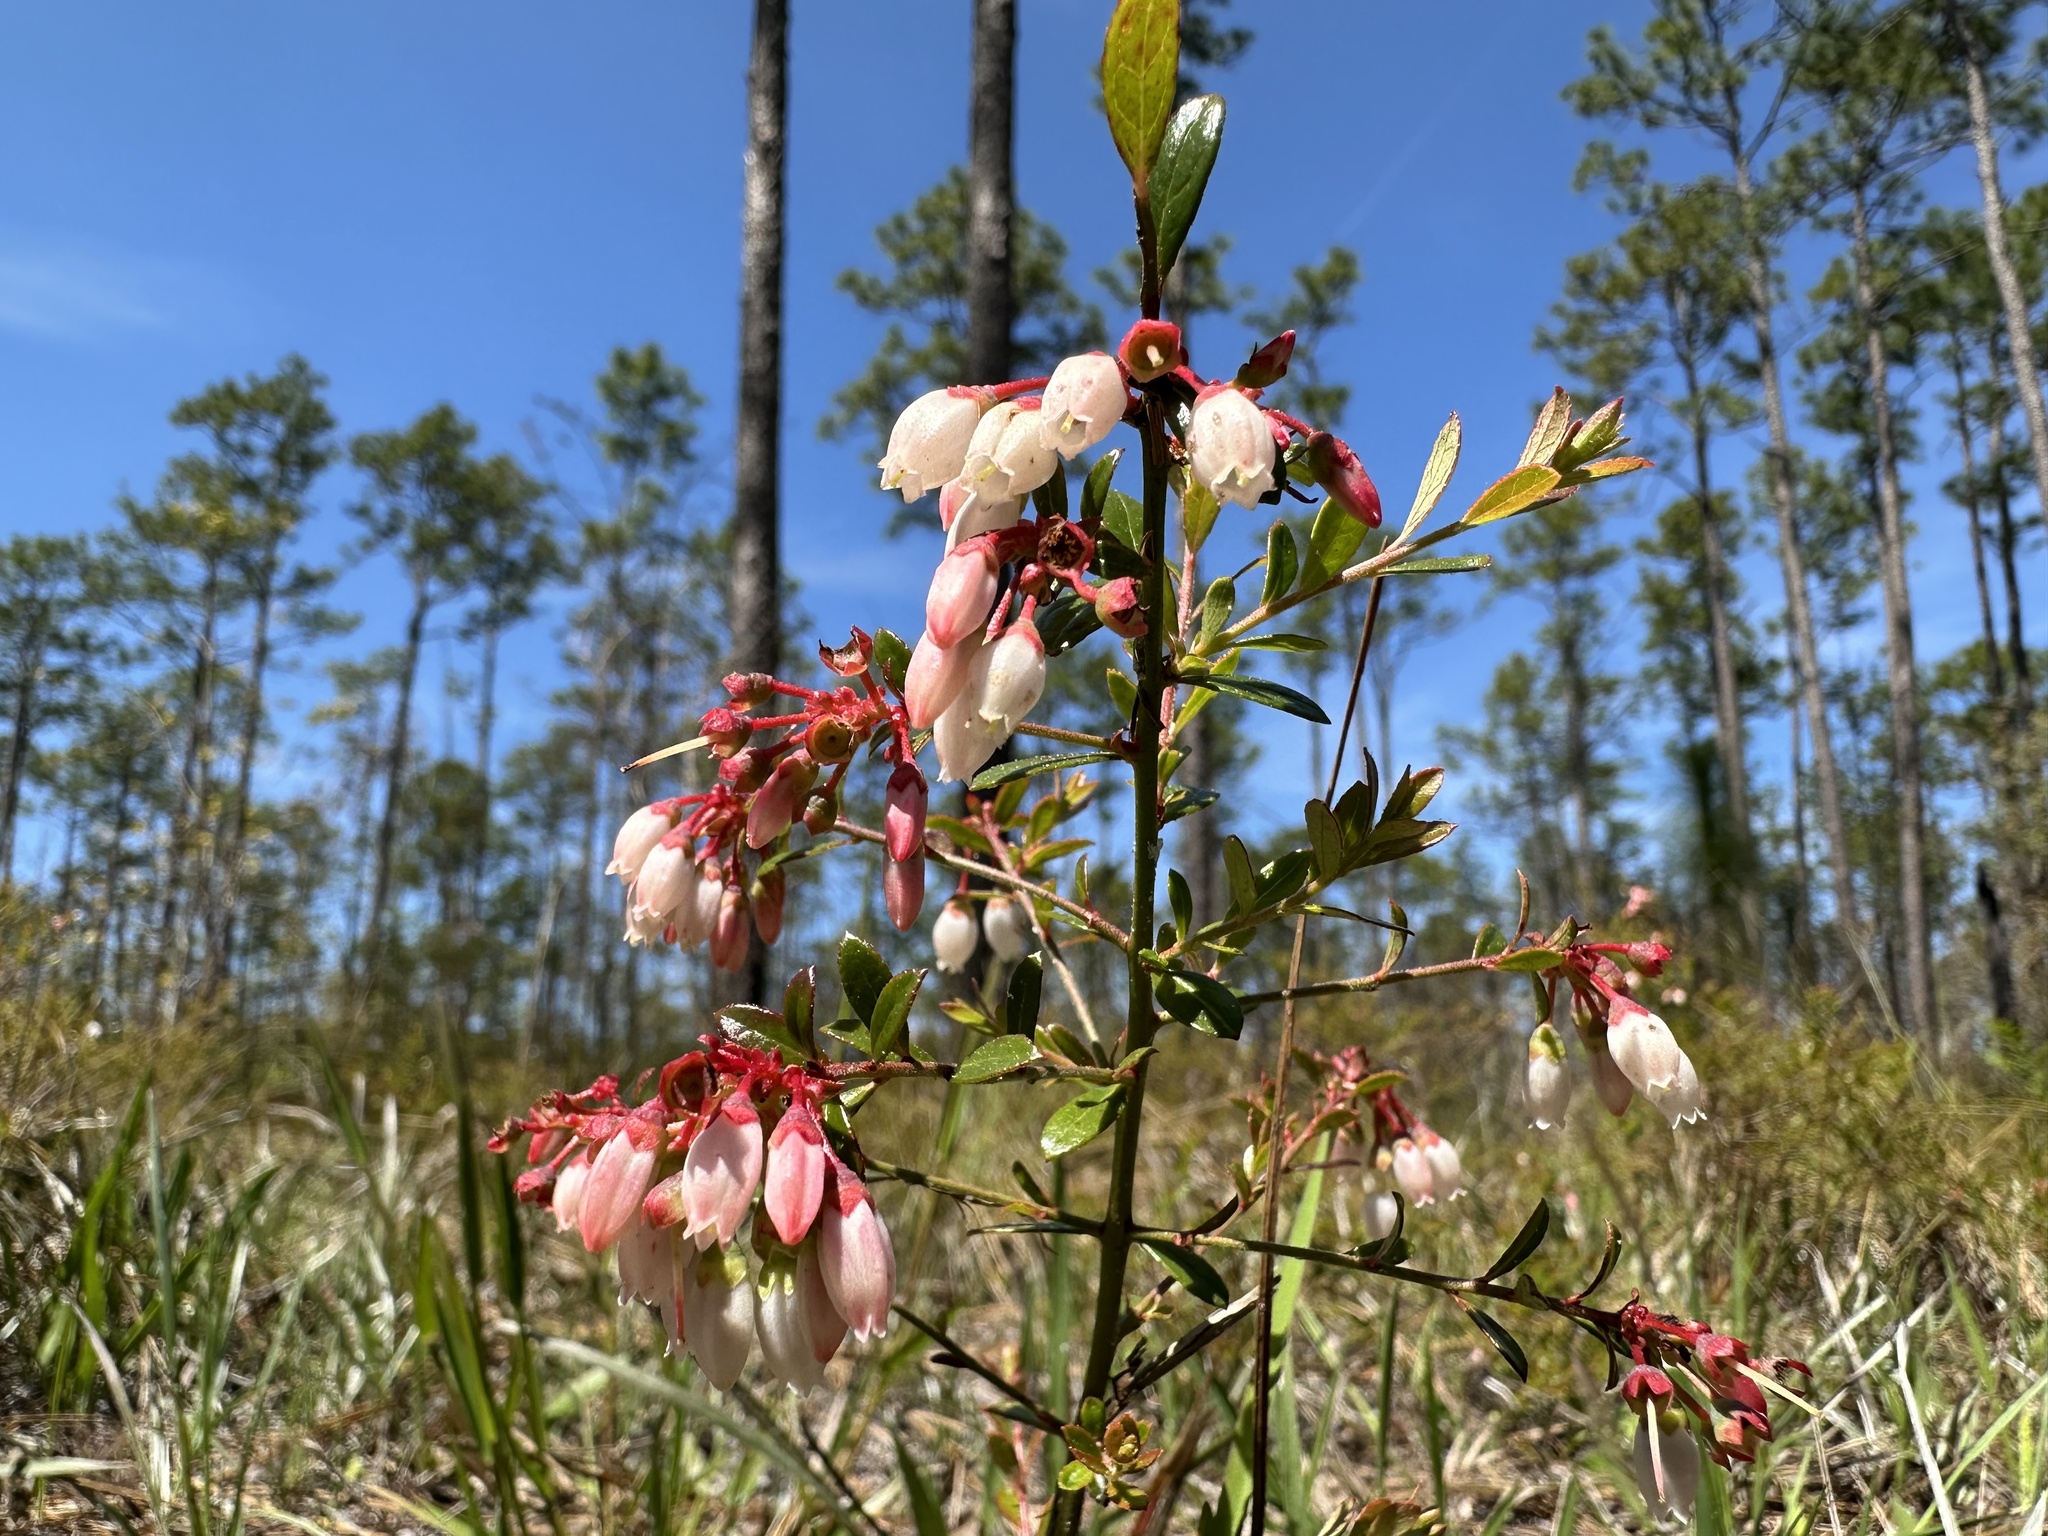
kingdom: Plantae
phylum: Tracheophyta
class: Magnoliopsida
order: Ericales
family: Ericaceae
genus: Vaccinium
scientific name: Vaccinium myrsinites
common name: Evergreen blueberry
